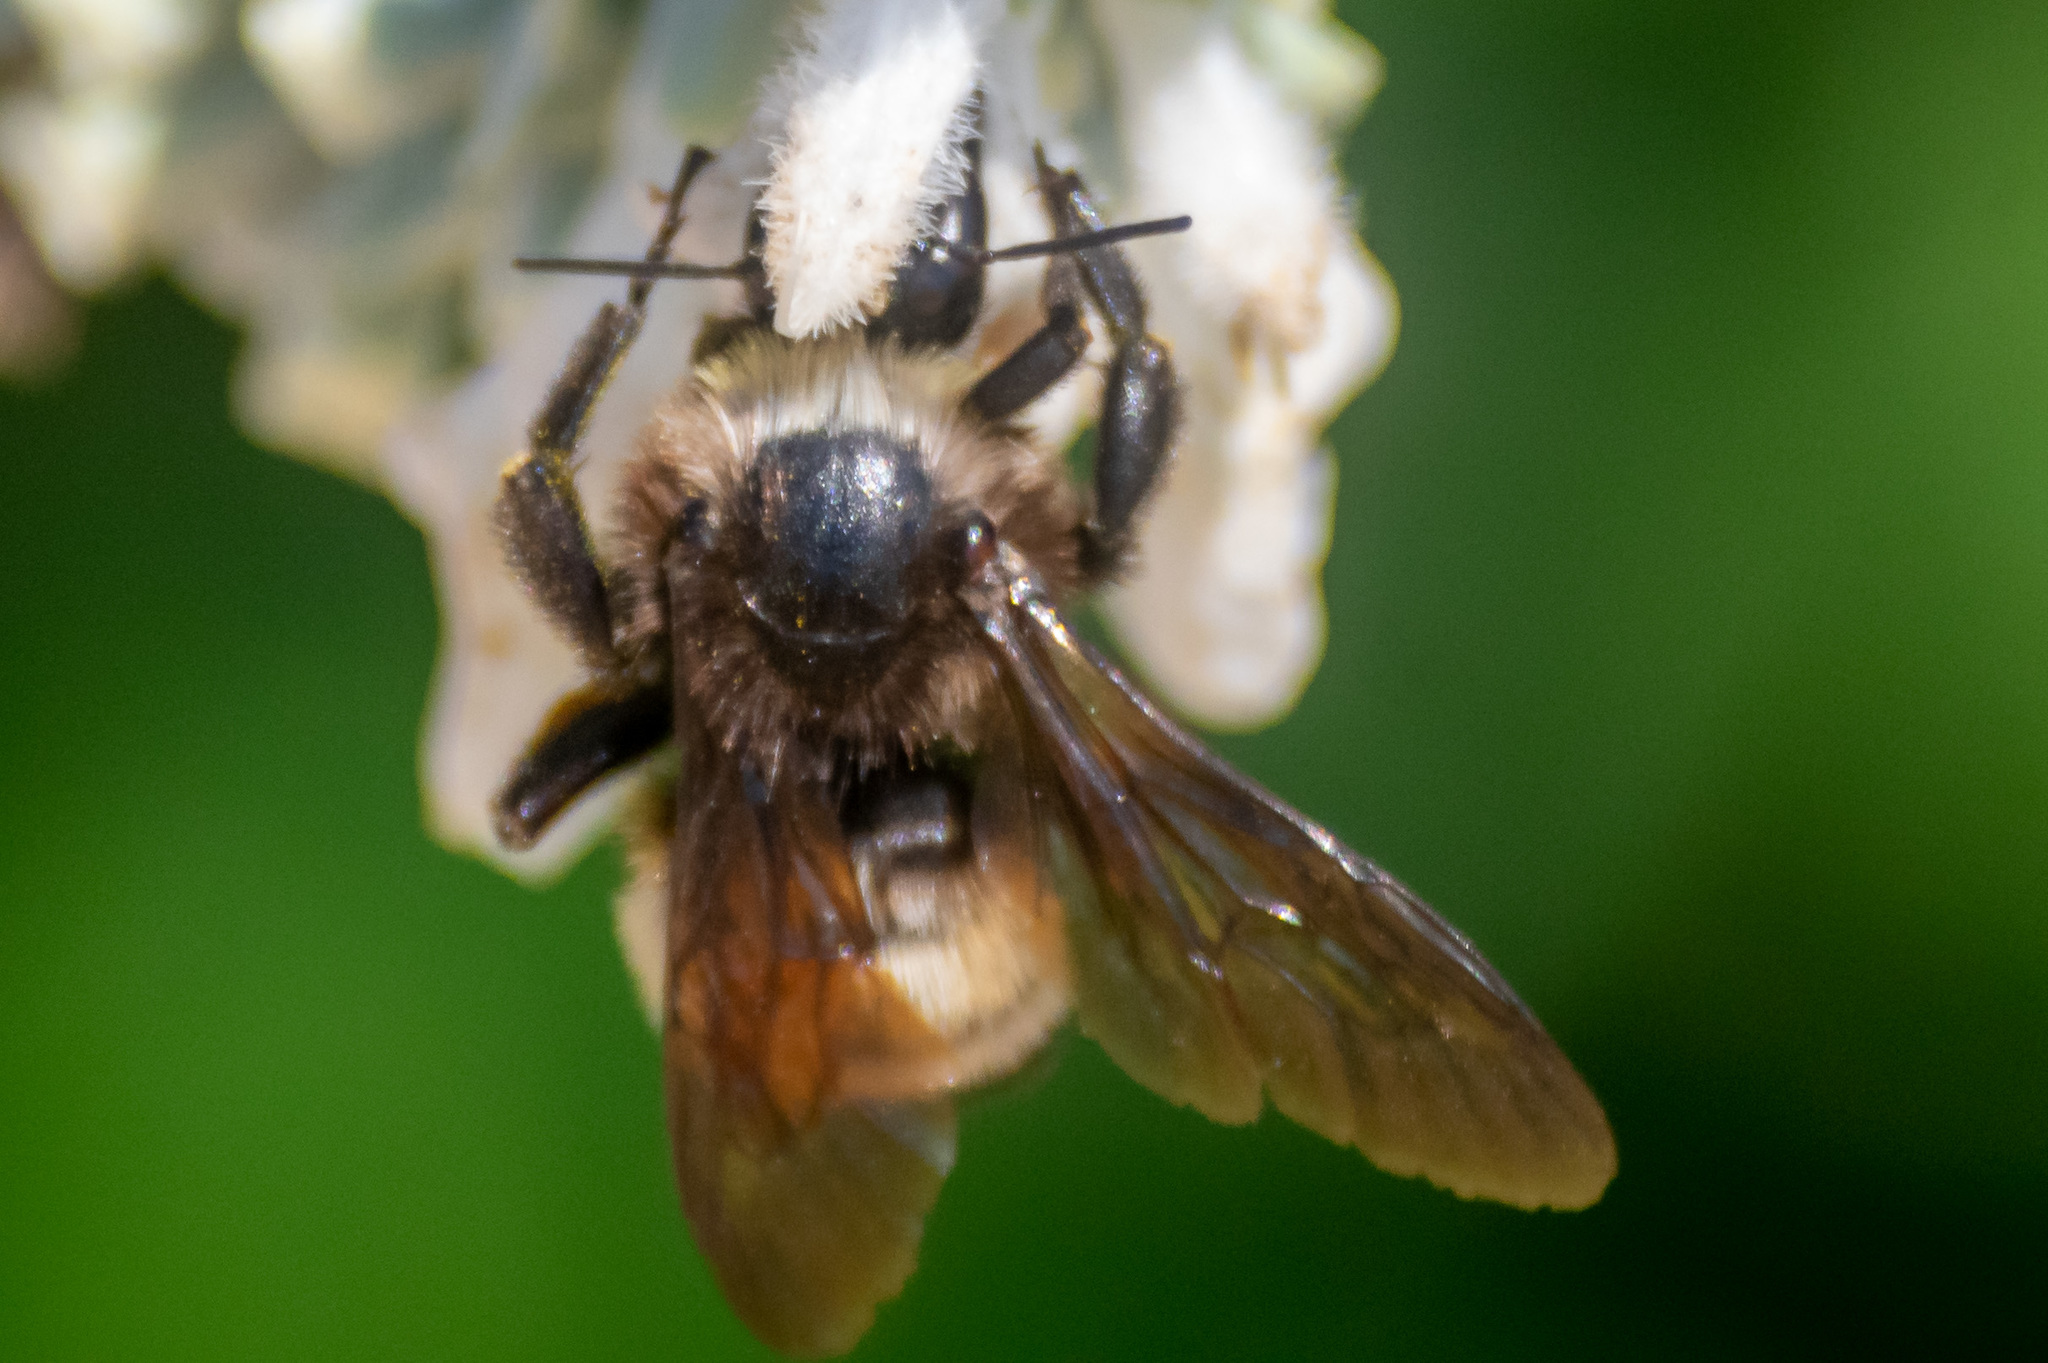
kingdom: Animalia
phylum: Arthropoda
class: Insecta
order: Hymenoptera
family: Apidae
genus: Bombus
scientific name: Bombus pensylvanicus
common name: Bumble bee
